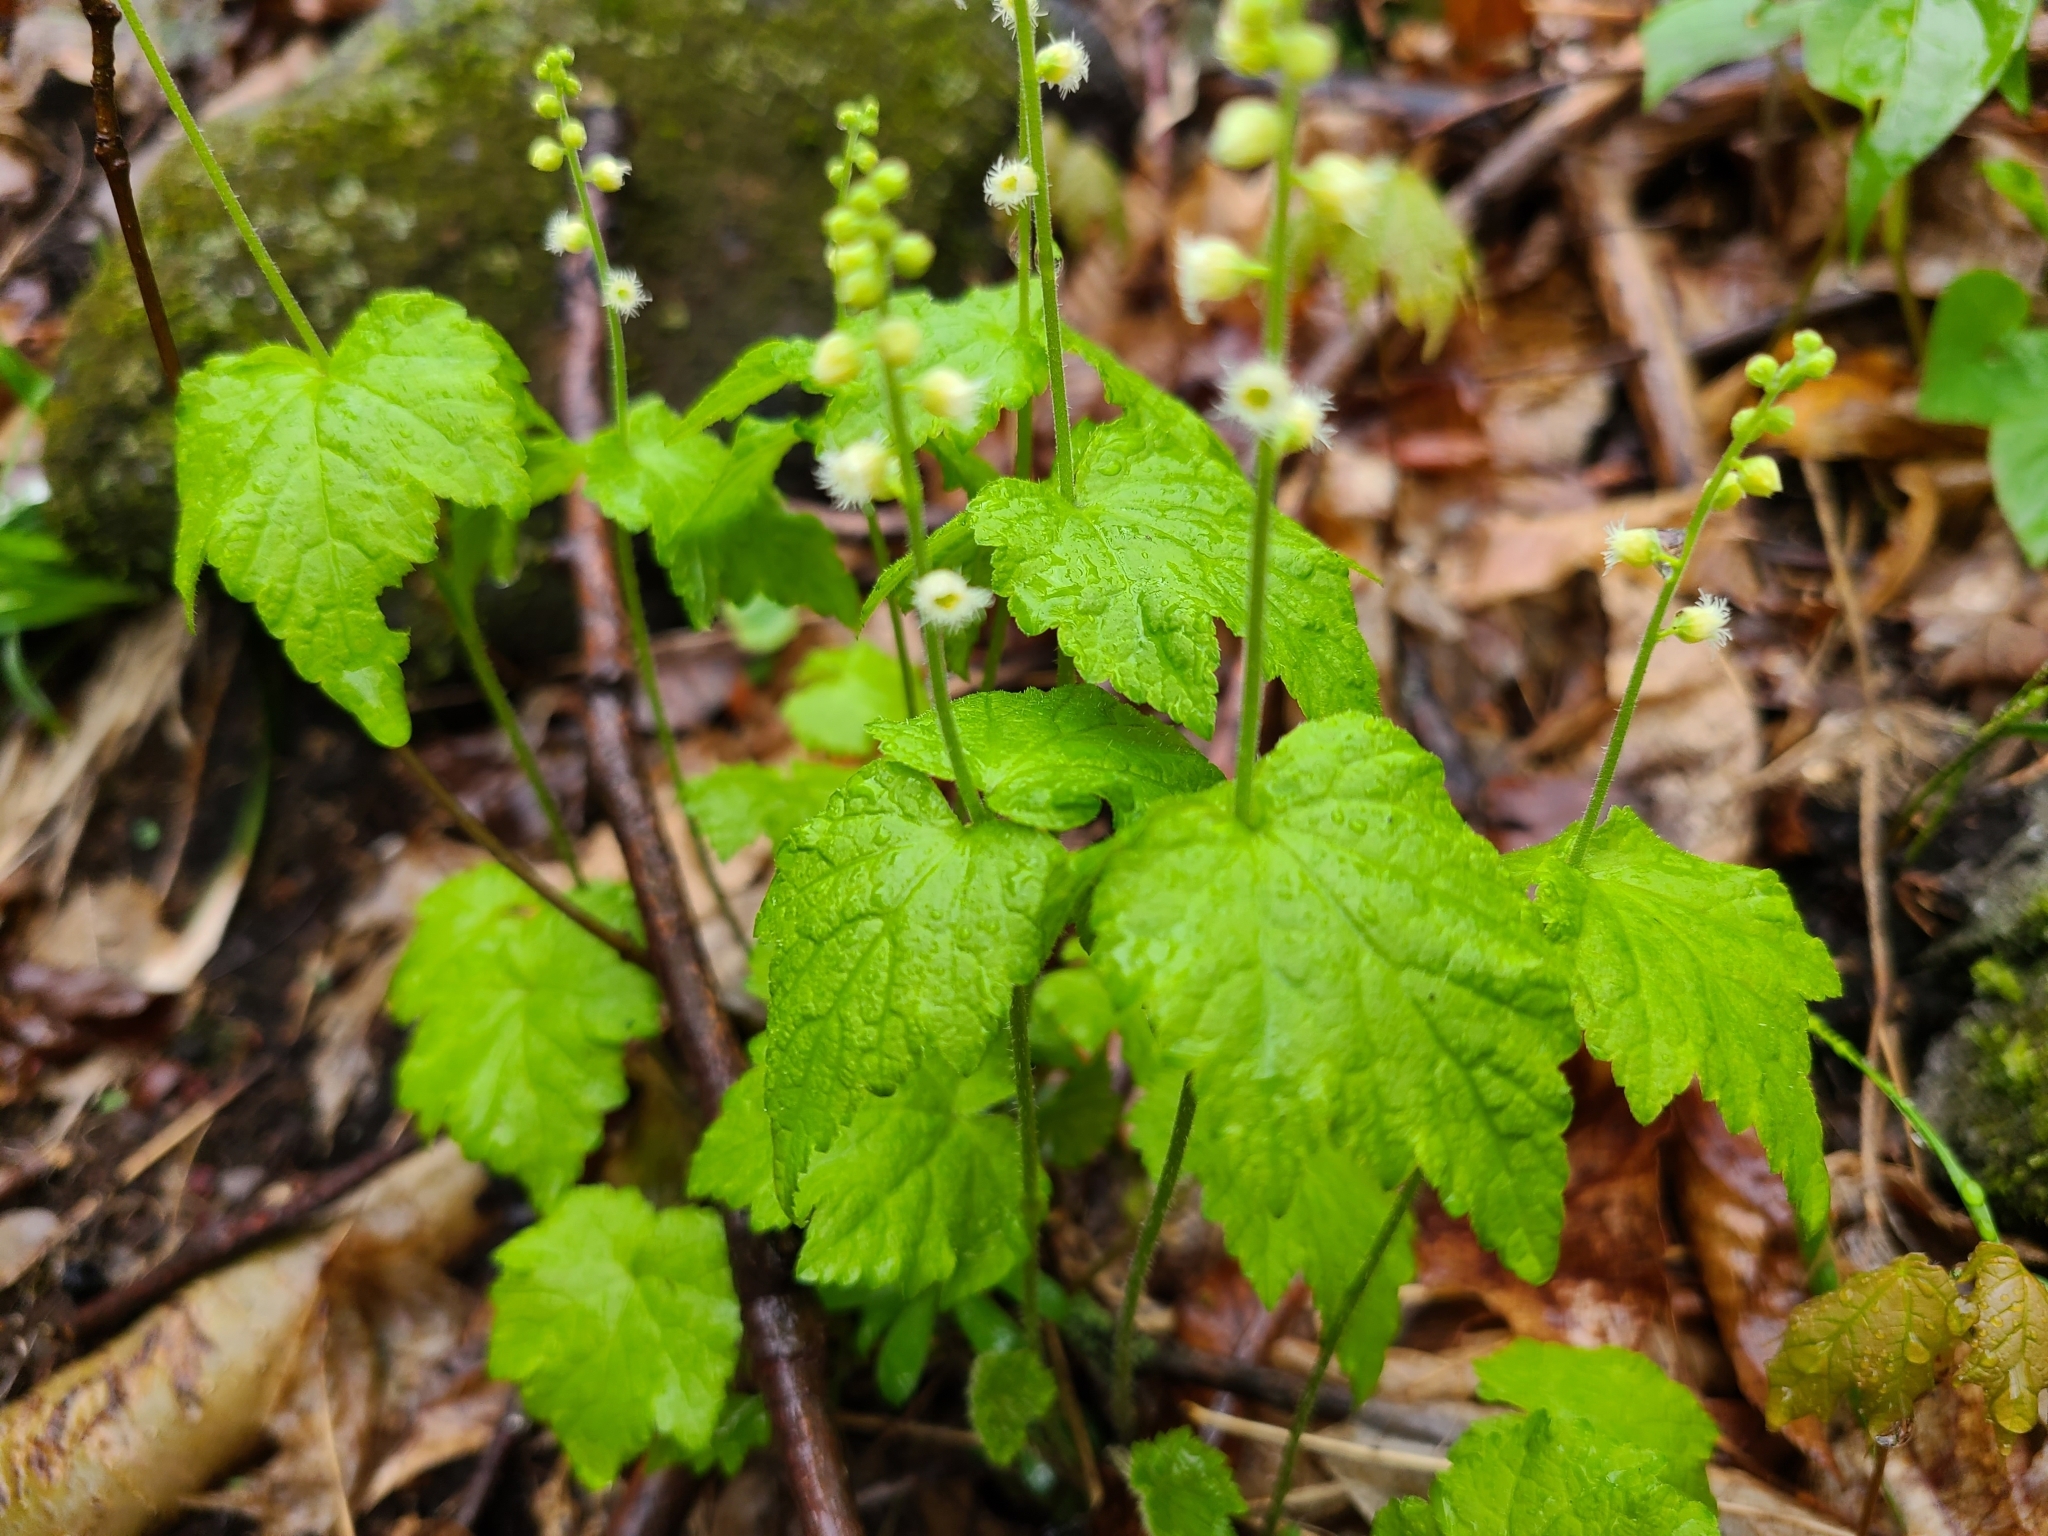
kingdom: Plantae
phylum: Tracheophyta
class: Magnoliopsida
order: Saxifragales
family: Saxifragaceae
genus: Mitella
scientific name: Mitella diphylla
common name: Coolwort
